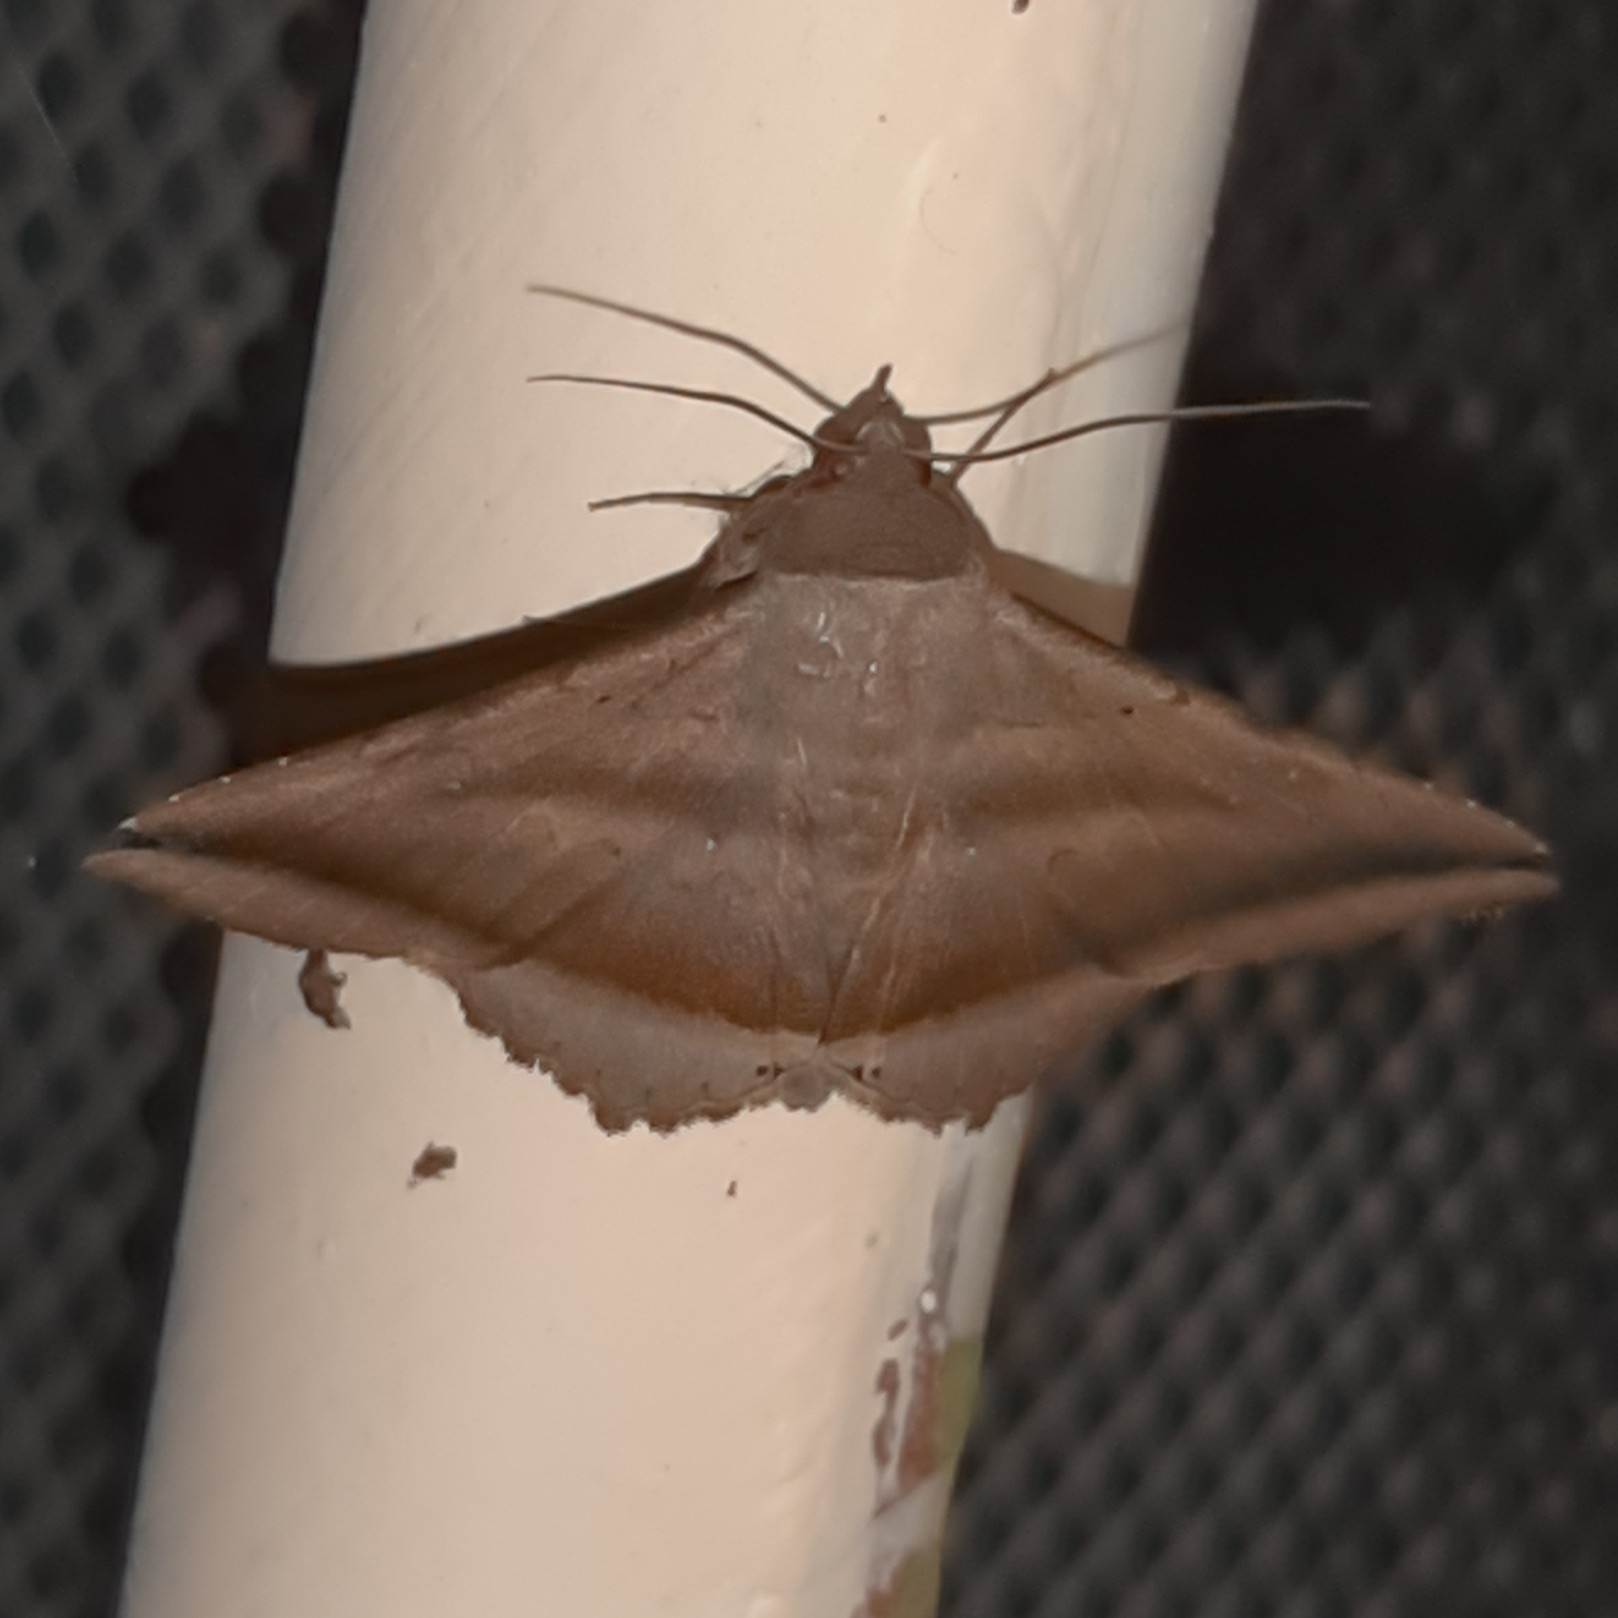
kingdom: Animalia
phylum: Arthropoda
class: Insecta
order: Lepidoptera
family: Erebidae
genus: Lesmone
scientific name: Lesmone formularis
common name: Lesmone moth
